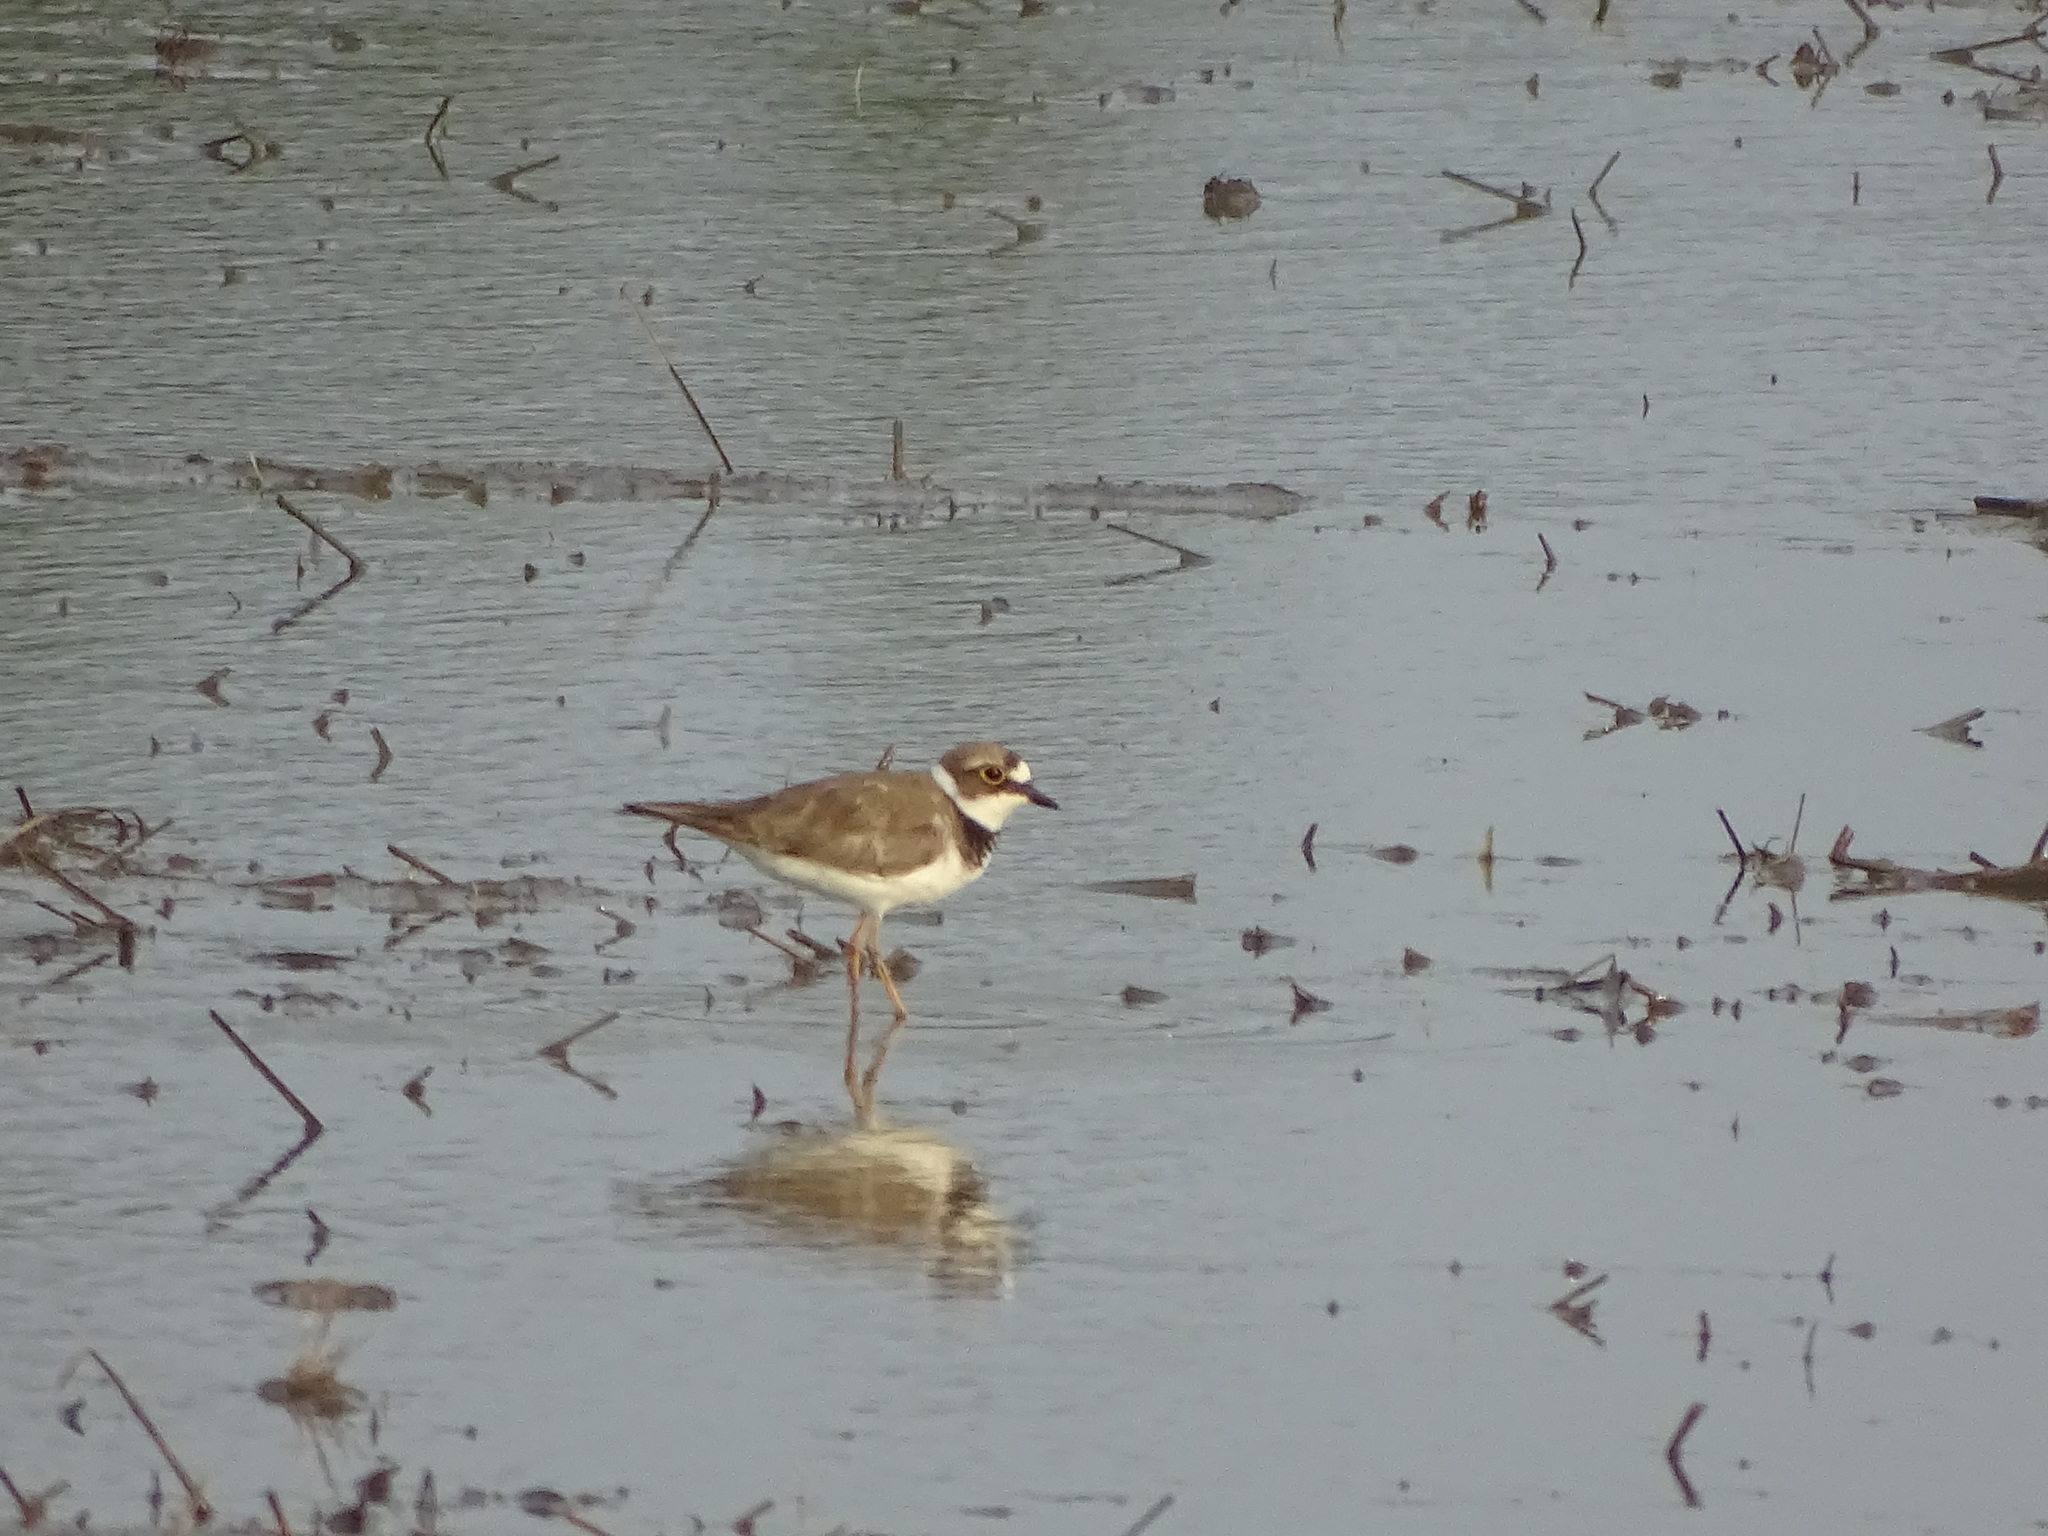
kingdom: Animalia
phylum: Chordata
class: Aves
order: Charadriiformes
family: Charadriidae
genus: Charadrius
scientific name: Charadrius dubius
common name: Little ringed plover
